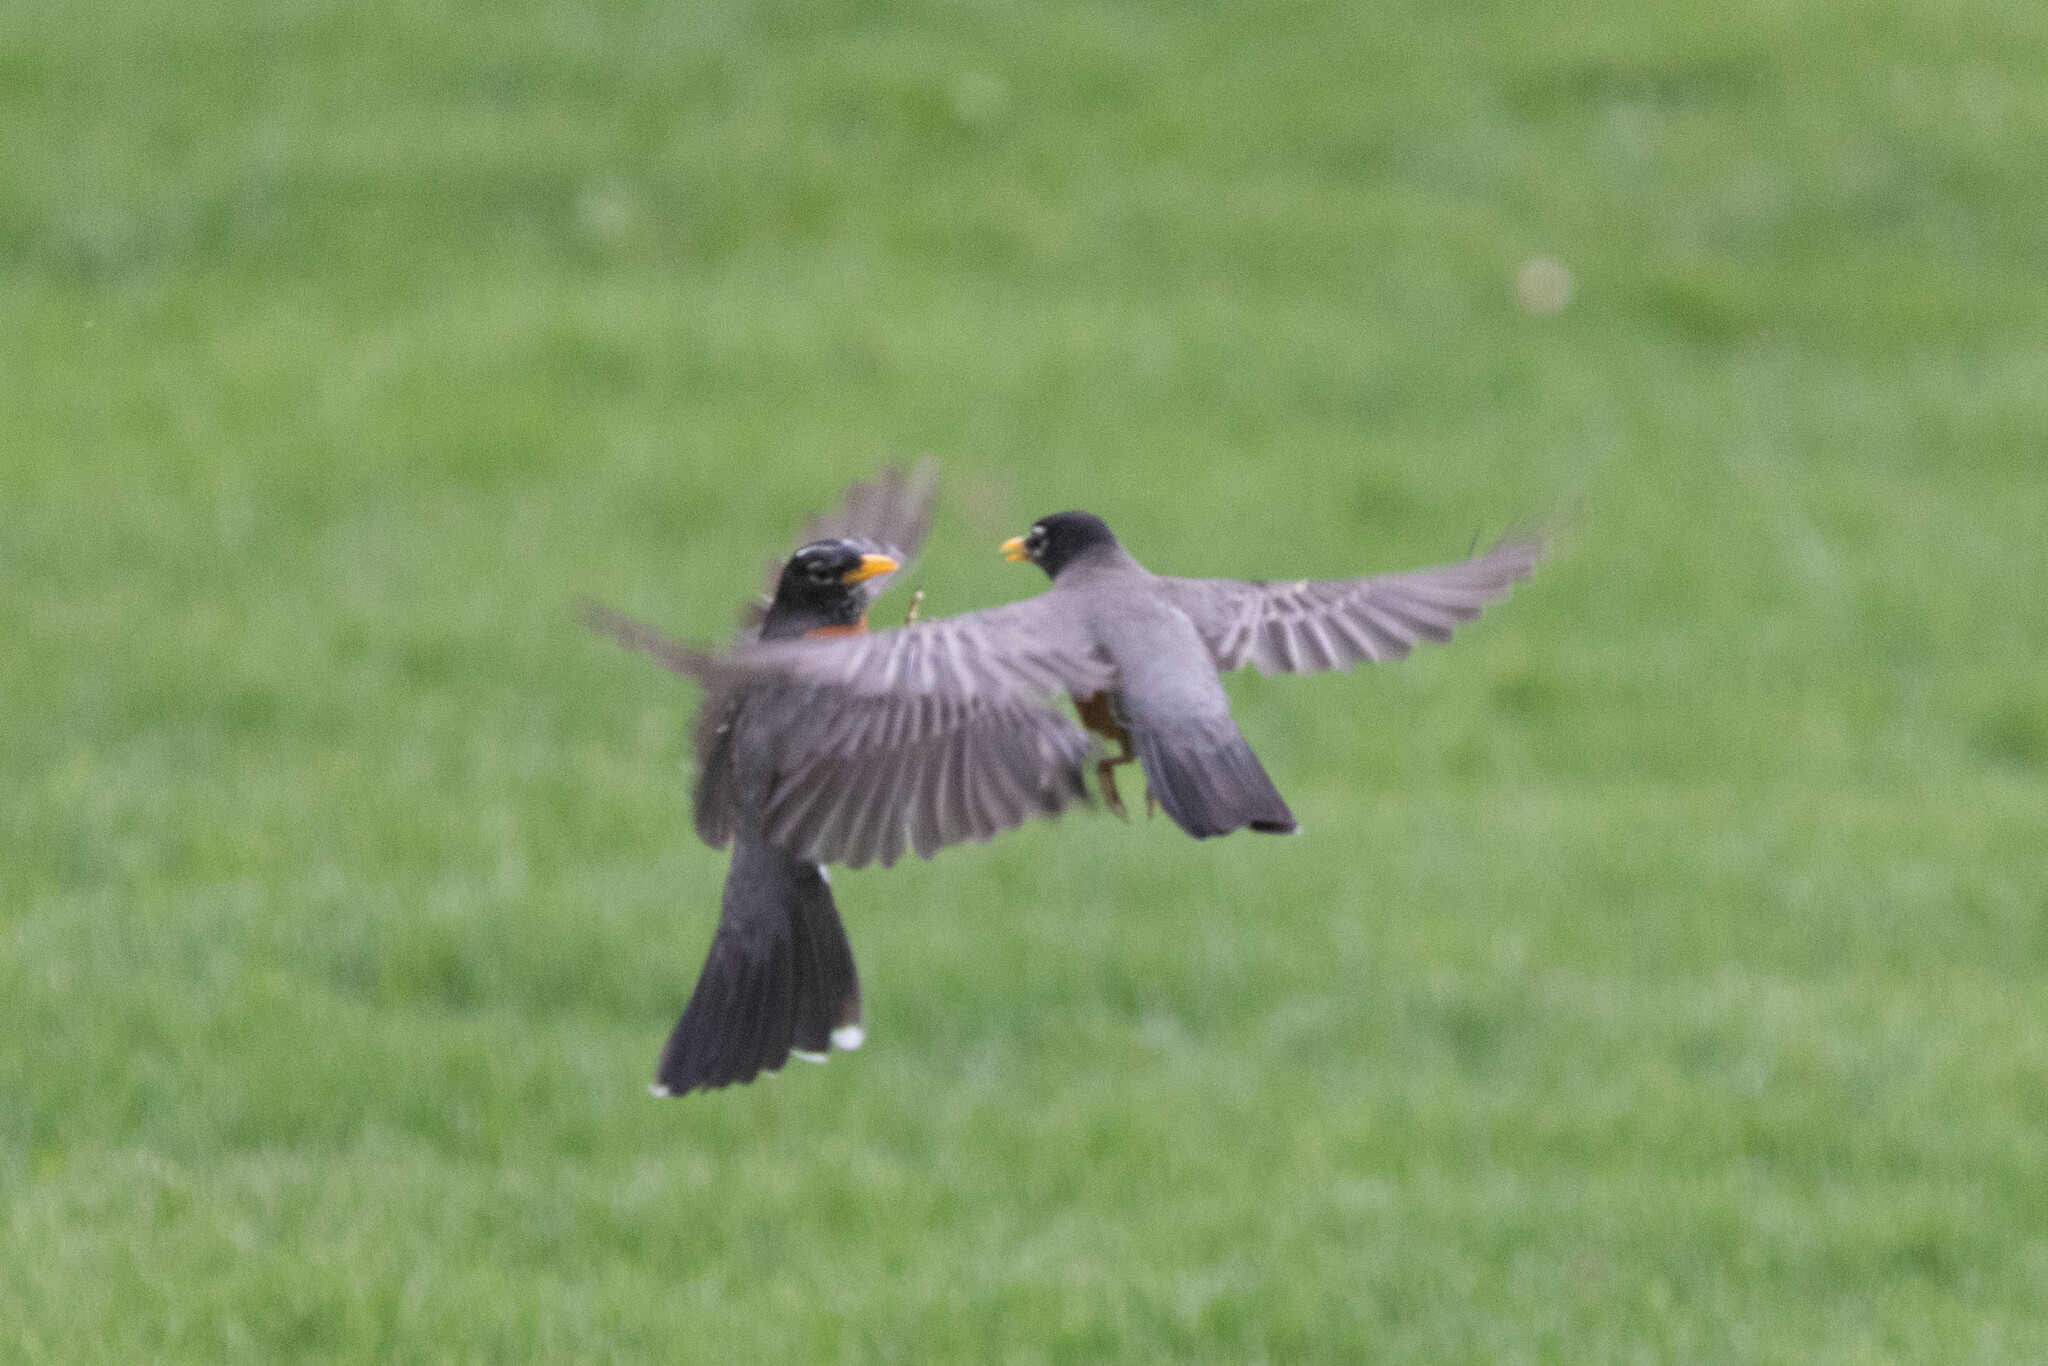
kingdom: Animalia
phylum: Chordata
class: Aves
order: Passeriformes
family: Turdidae
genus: Turdus
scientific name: Turdus migratorius
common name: American robin
